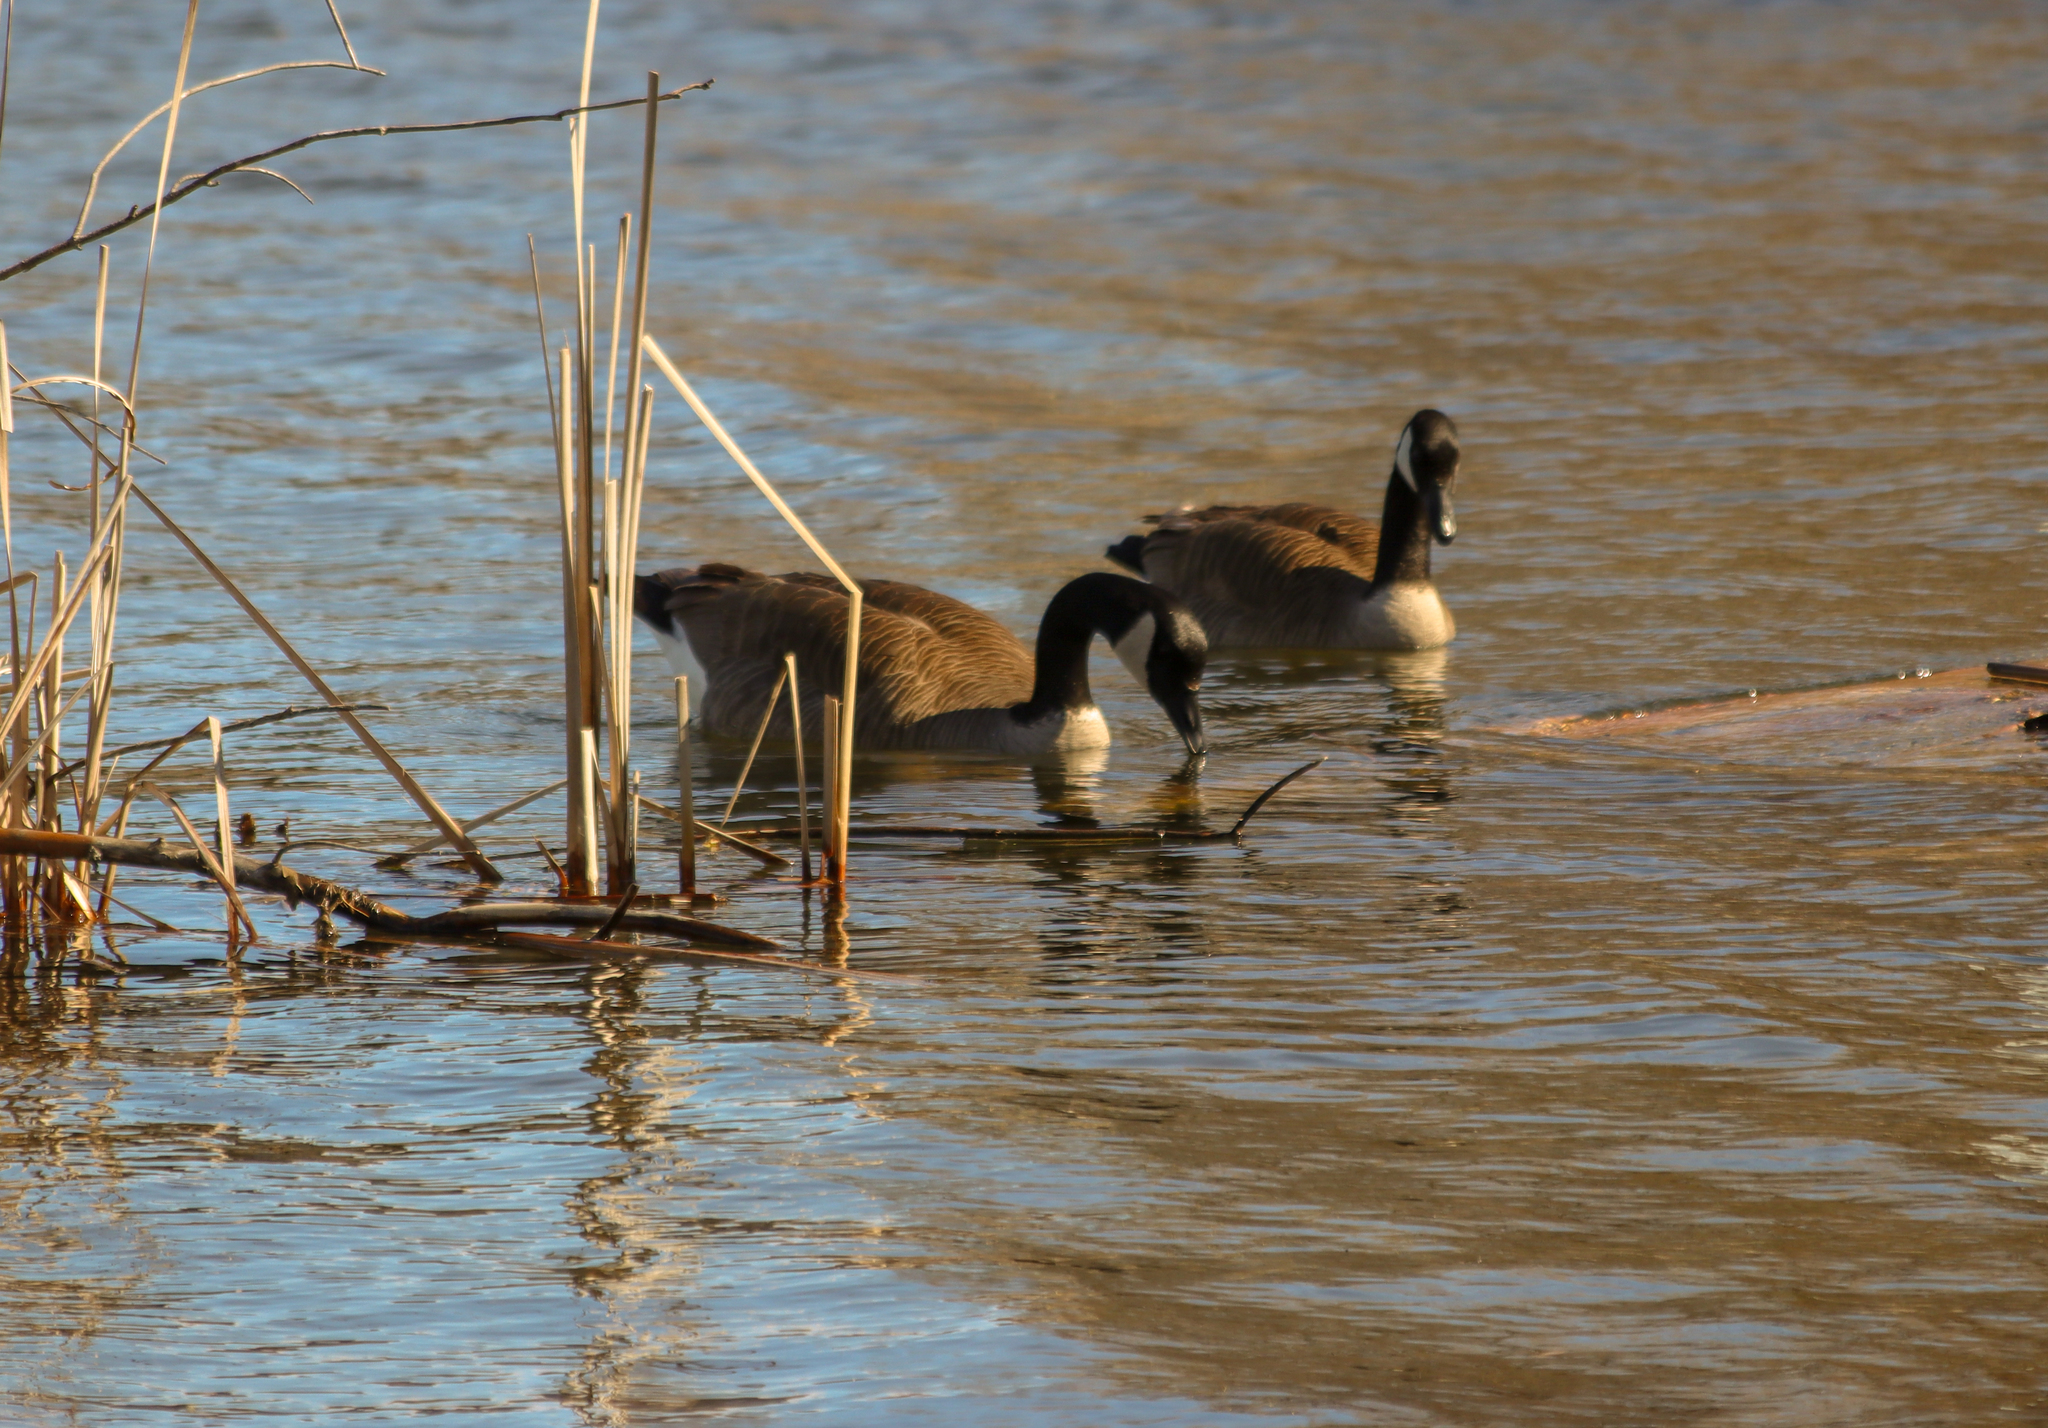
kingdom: Animalia
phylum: Chordata
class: Aves
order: Anseriformes
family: Anatidae
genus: Branta
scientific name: Branta canadensis
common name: Canada goose
